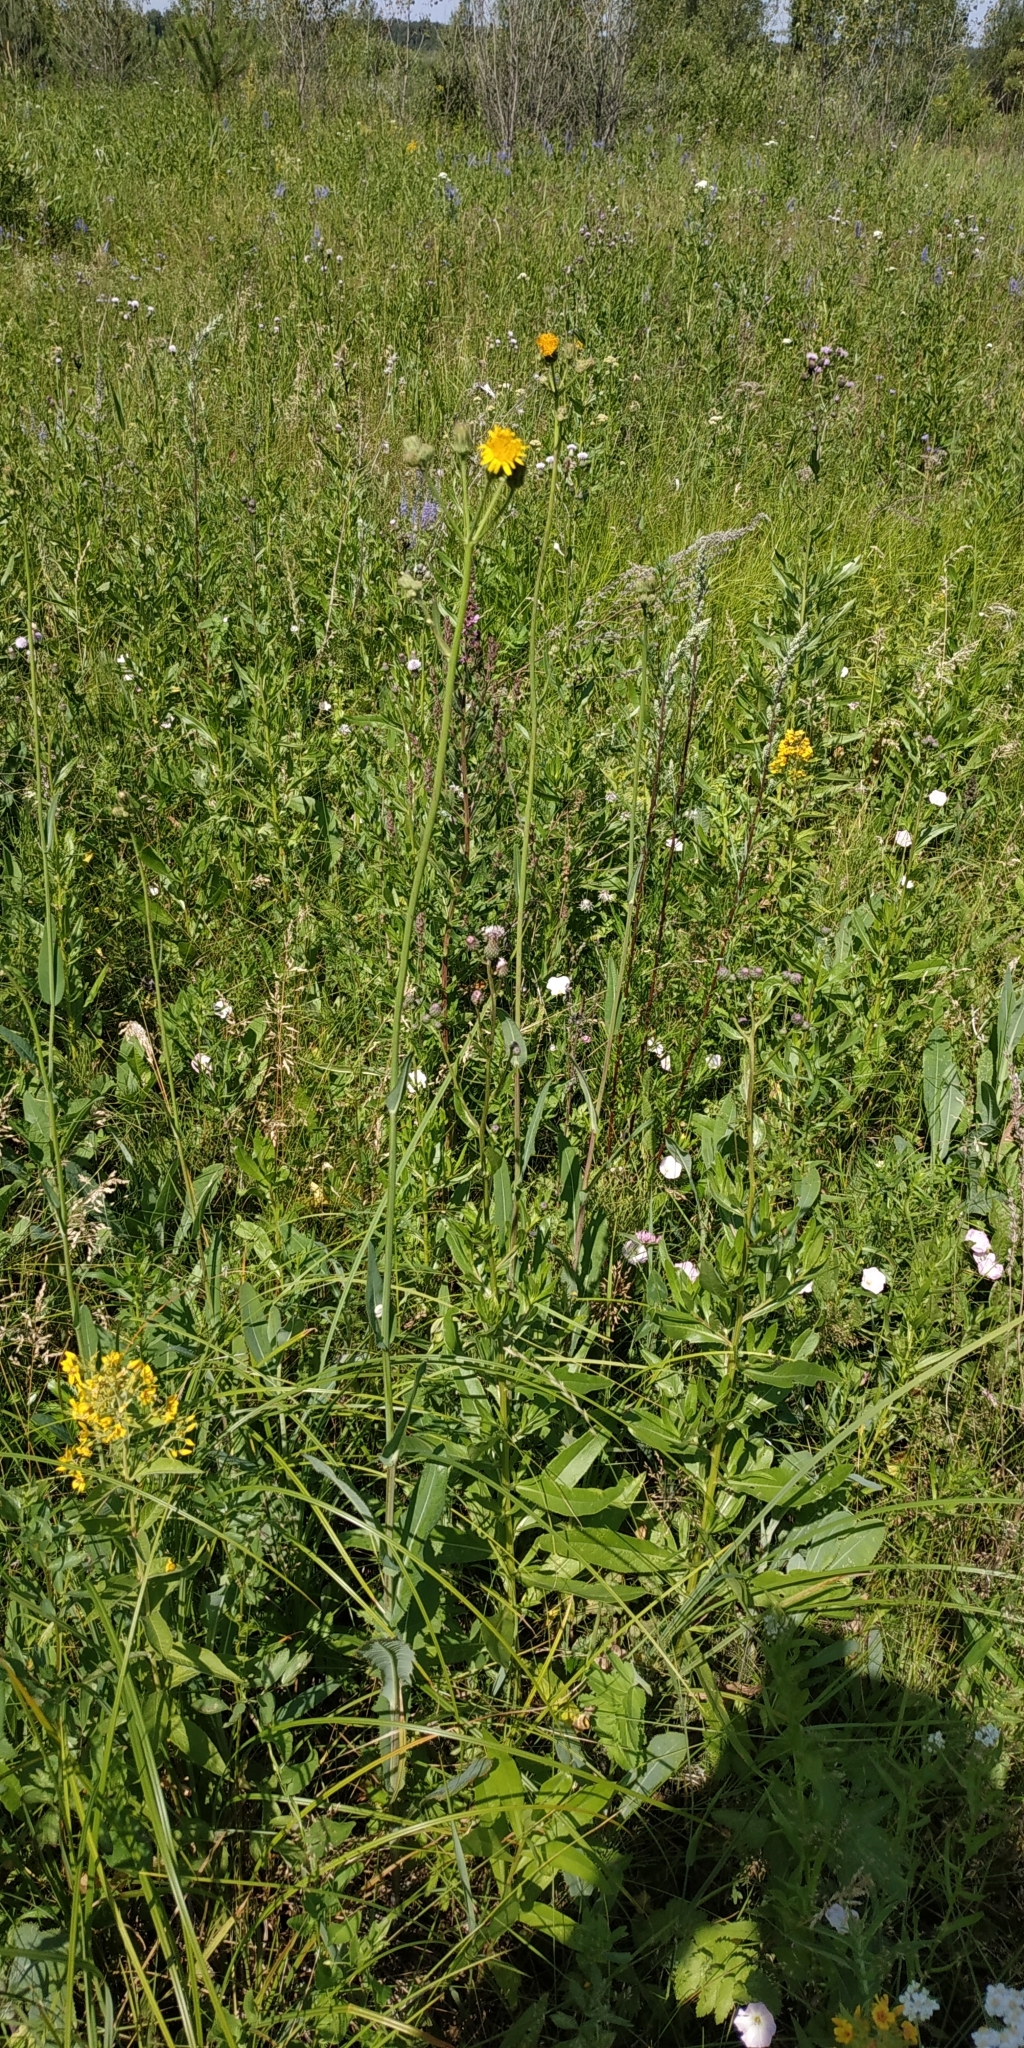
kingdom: Plantae
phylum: Tracheophyta
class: Magnoliopsida
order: Asterales
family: Asteraceae
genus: Sonchus
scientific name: Sonchus arvensis
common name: Perennial sow-thistle
